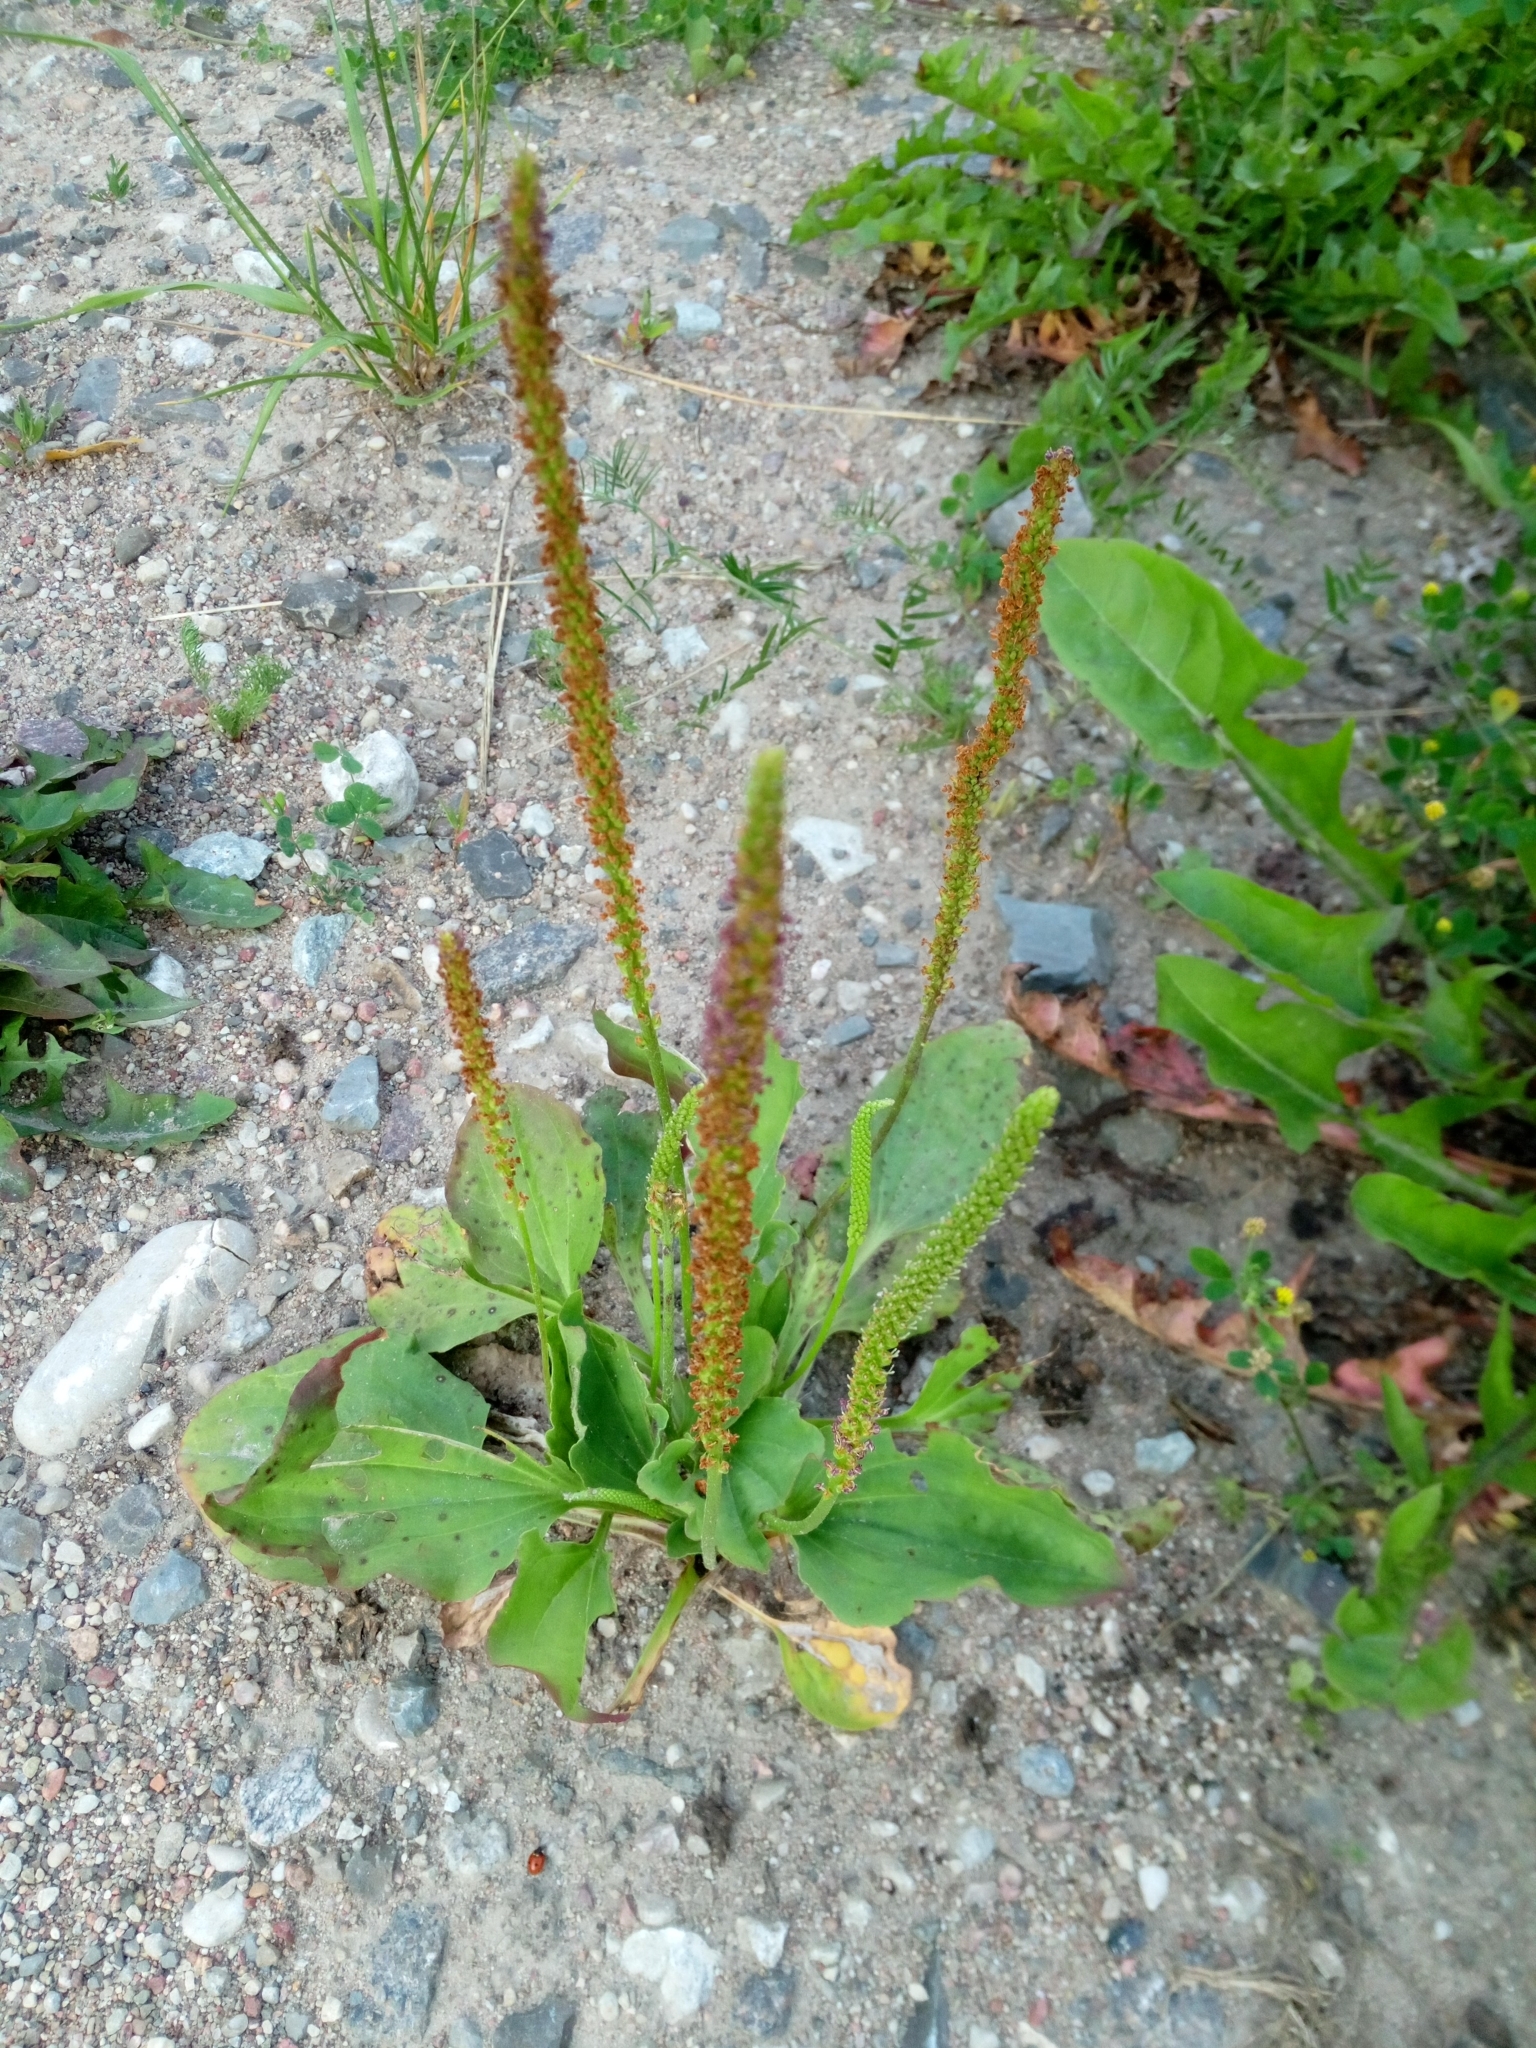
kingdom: Plantae
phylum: Tracheophyta
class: Magnoliopsida
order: Lamiales
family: Plantaginaceae
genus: Plantago
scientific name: Plantago major
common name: Common plantain
